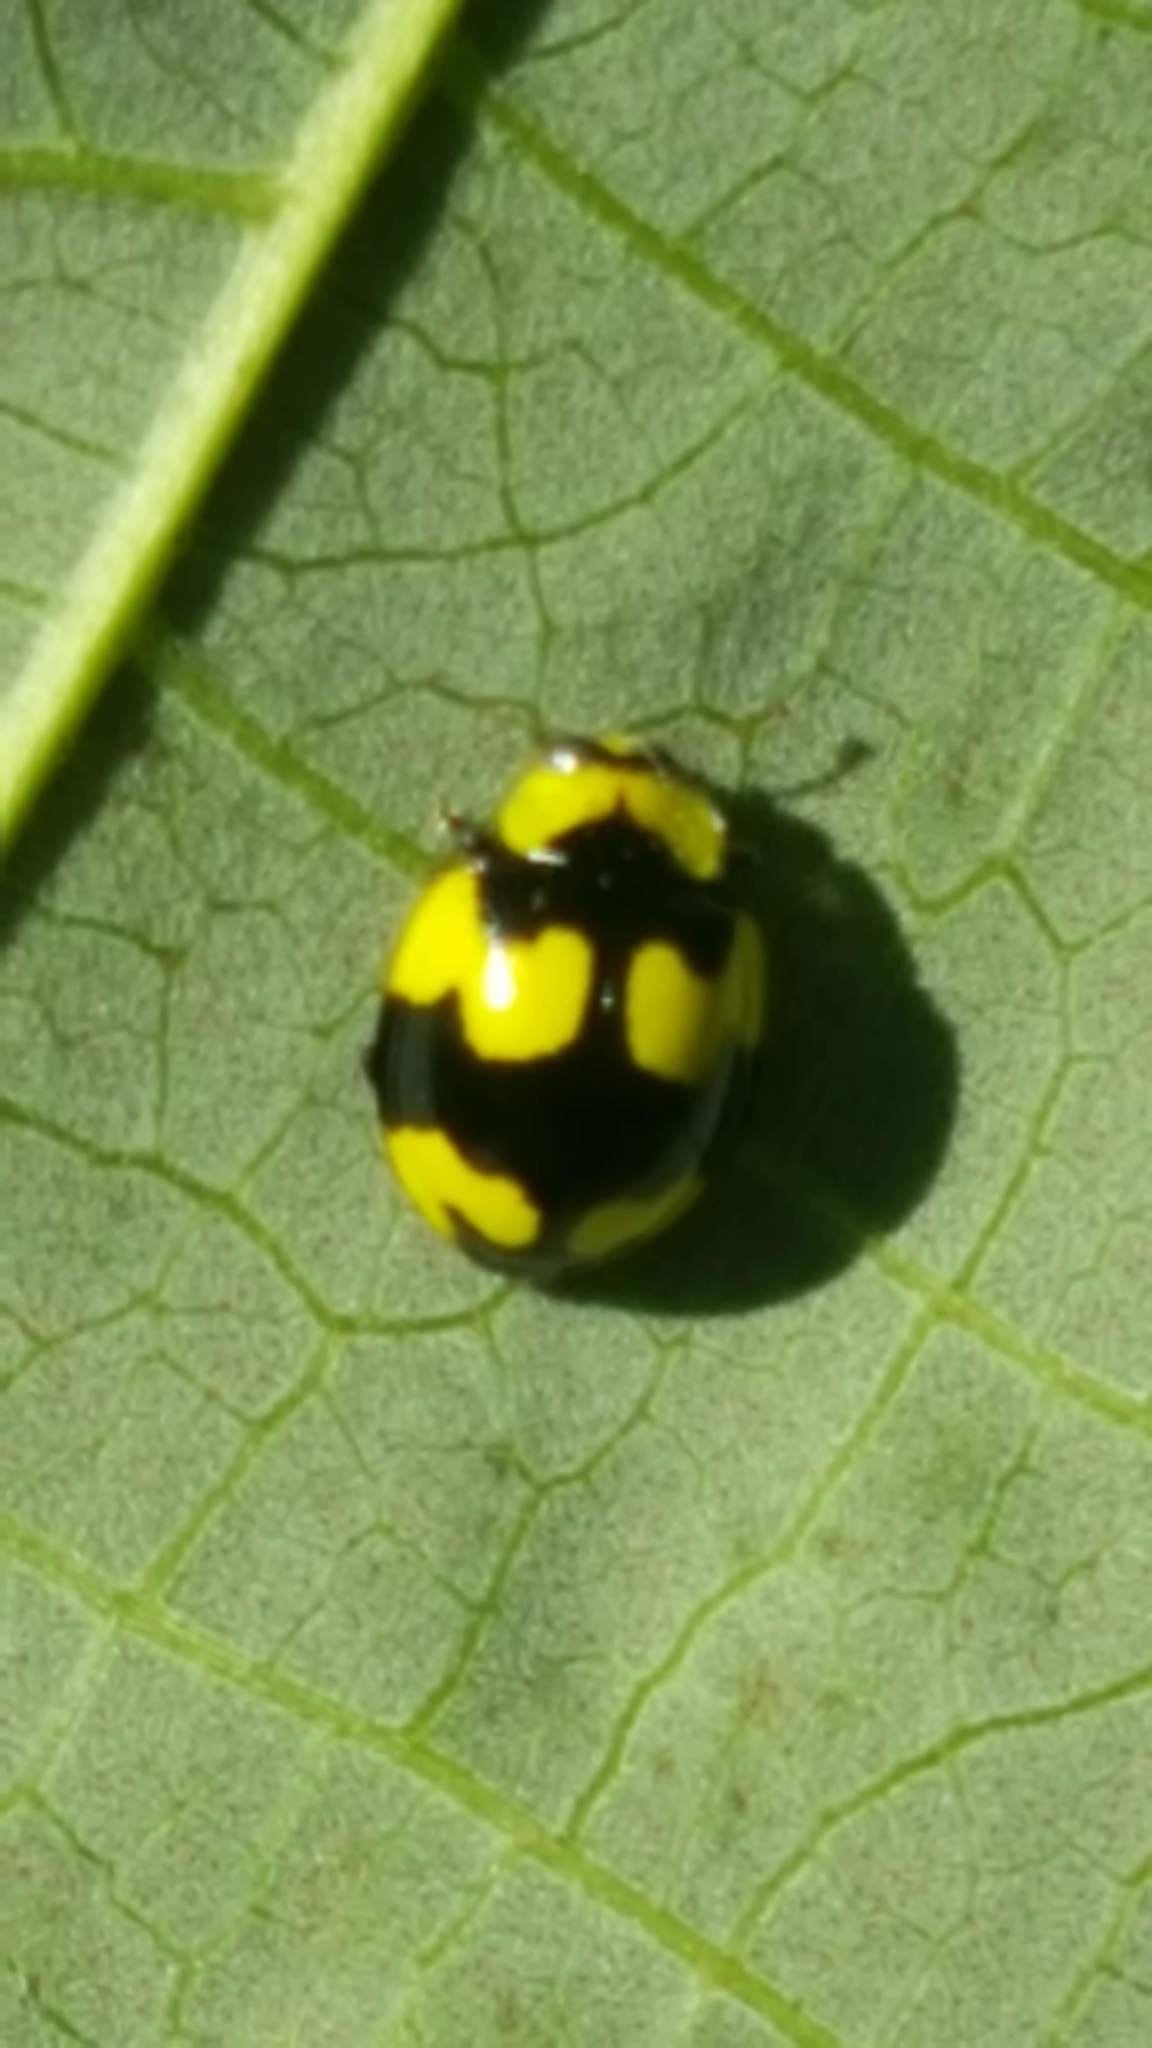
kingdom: Animalia
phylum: Arthropoda
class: Insecta
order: Coleoptera
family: Coccinellidae
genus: Illeis
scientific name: Illeis galbula
